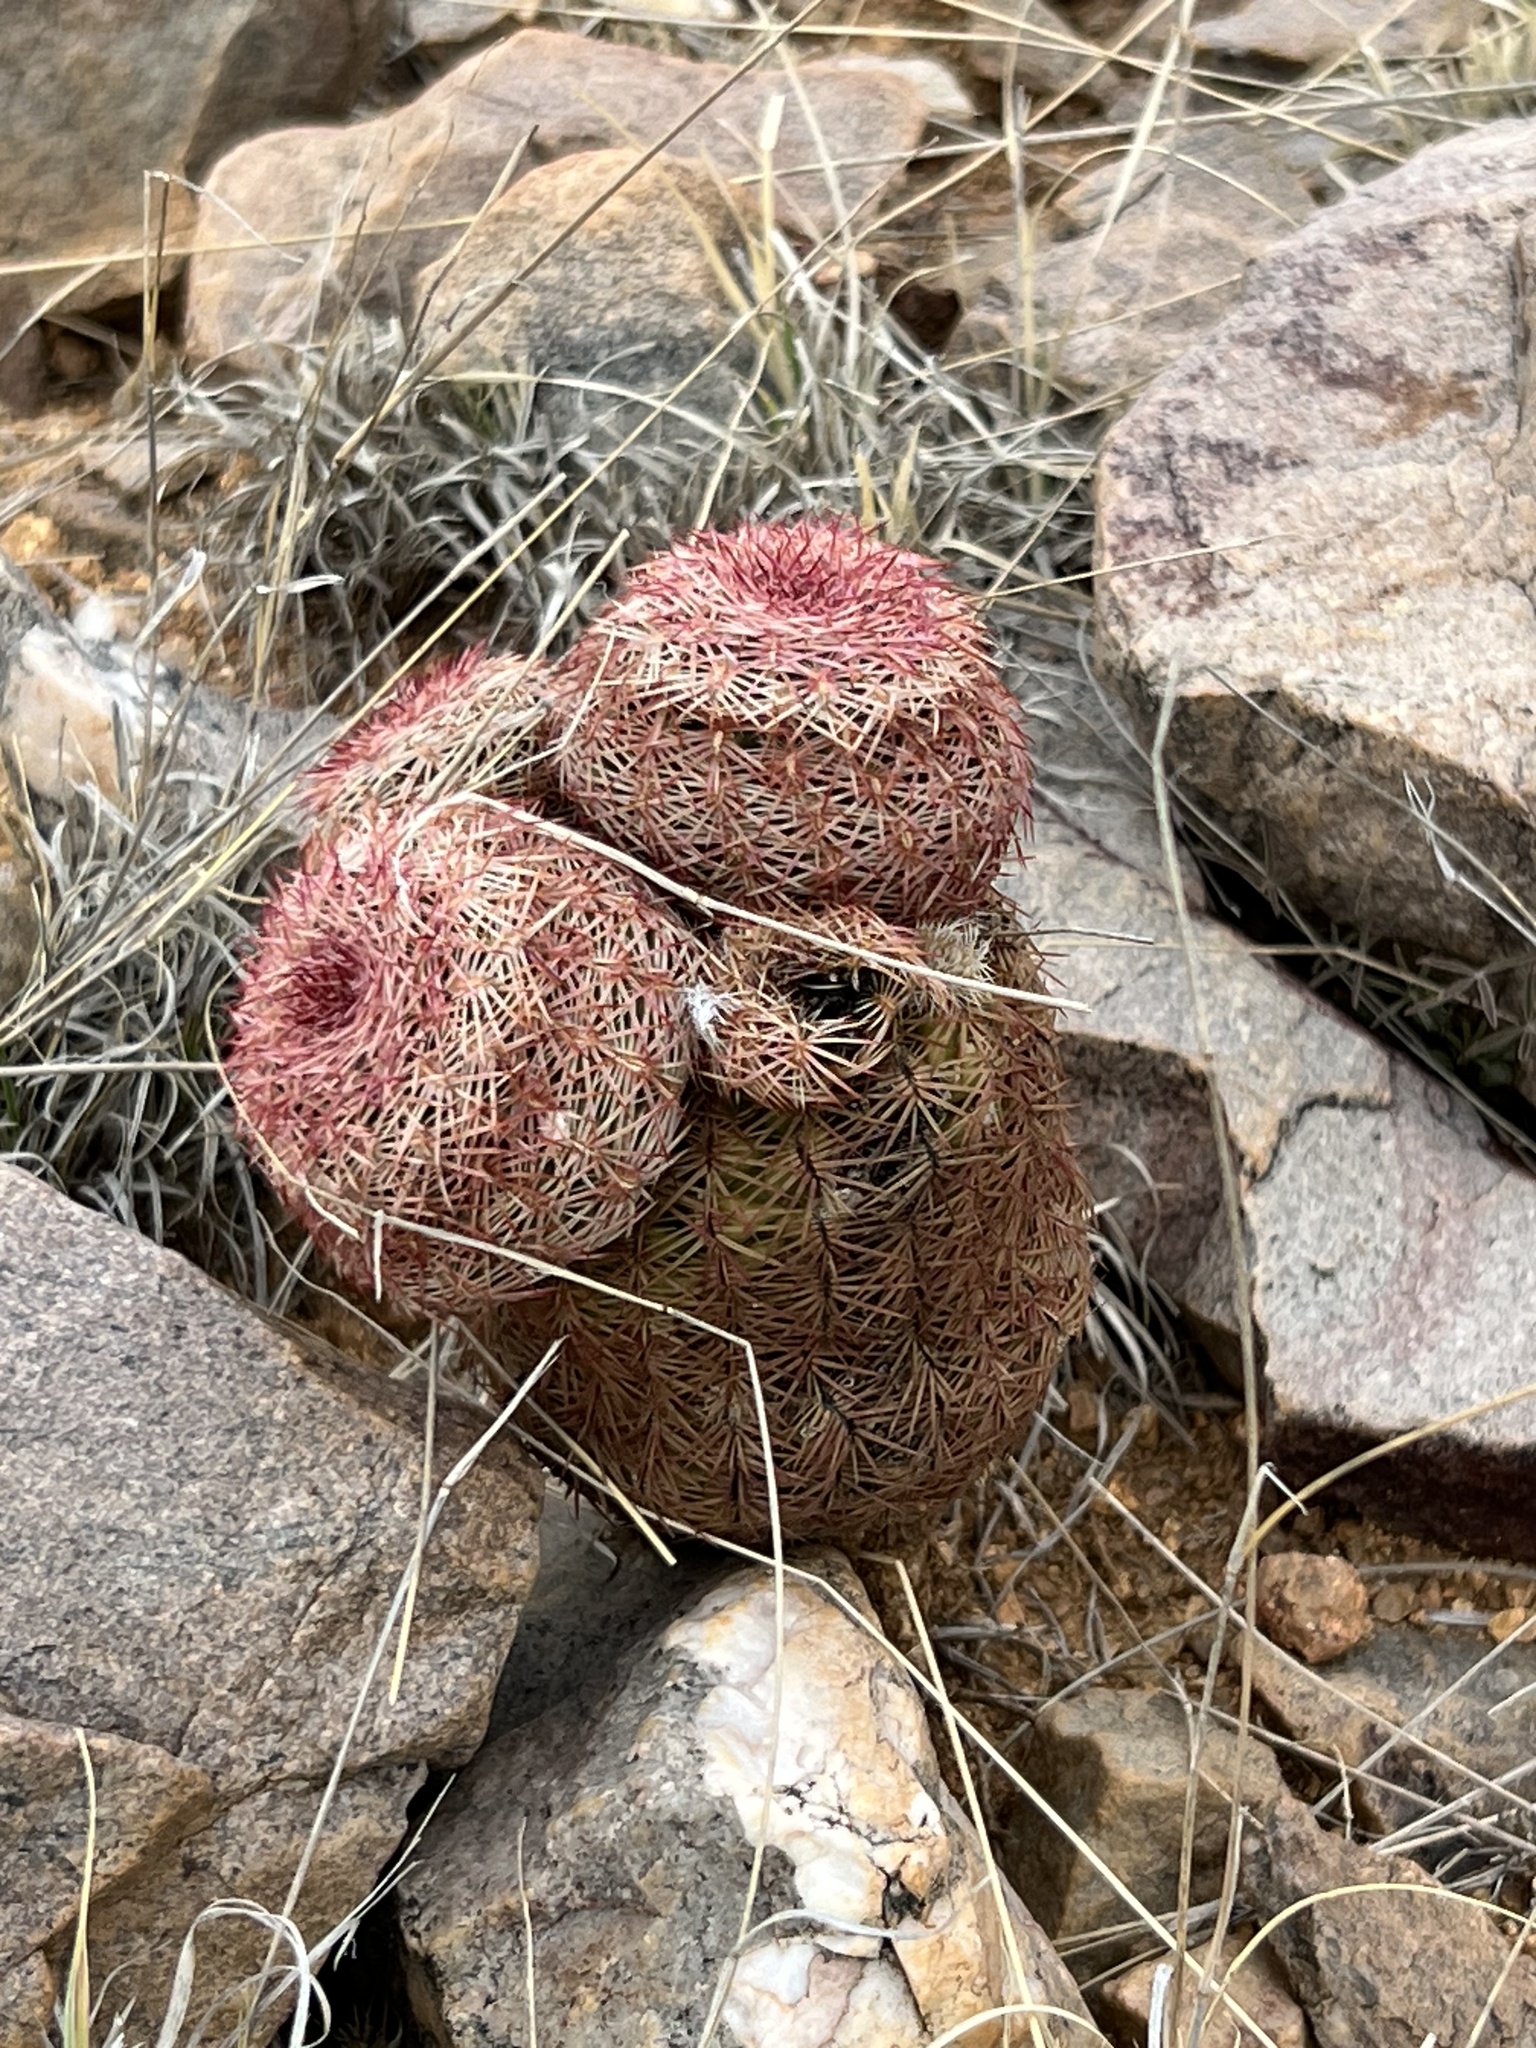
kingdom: Plantae
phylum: Tracheophyta
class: Magnoliopsida
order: Caryophyllales
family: Cactaceae
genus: Echinocereus
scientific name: Echinocereus rigidissimus
